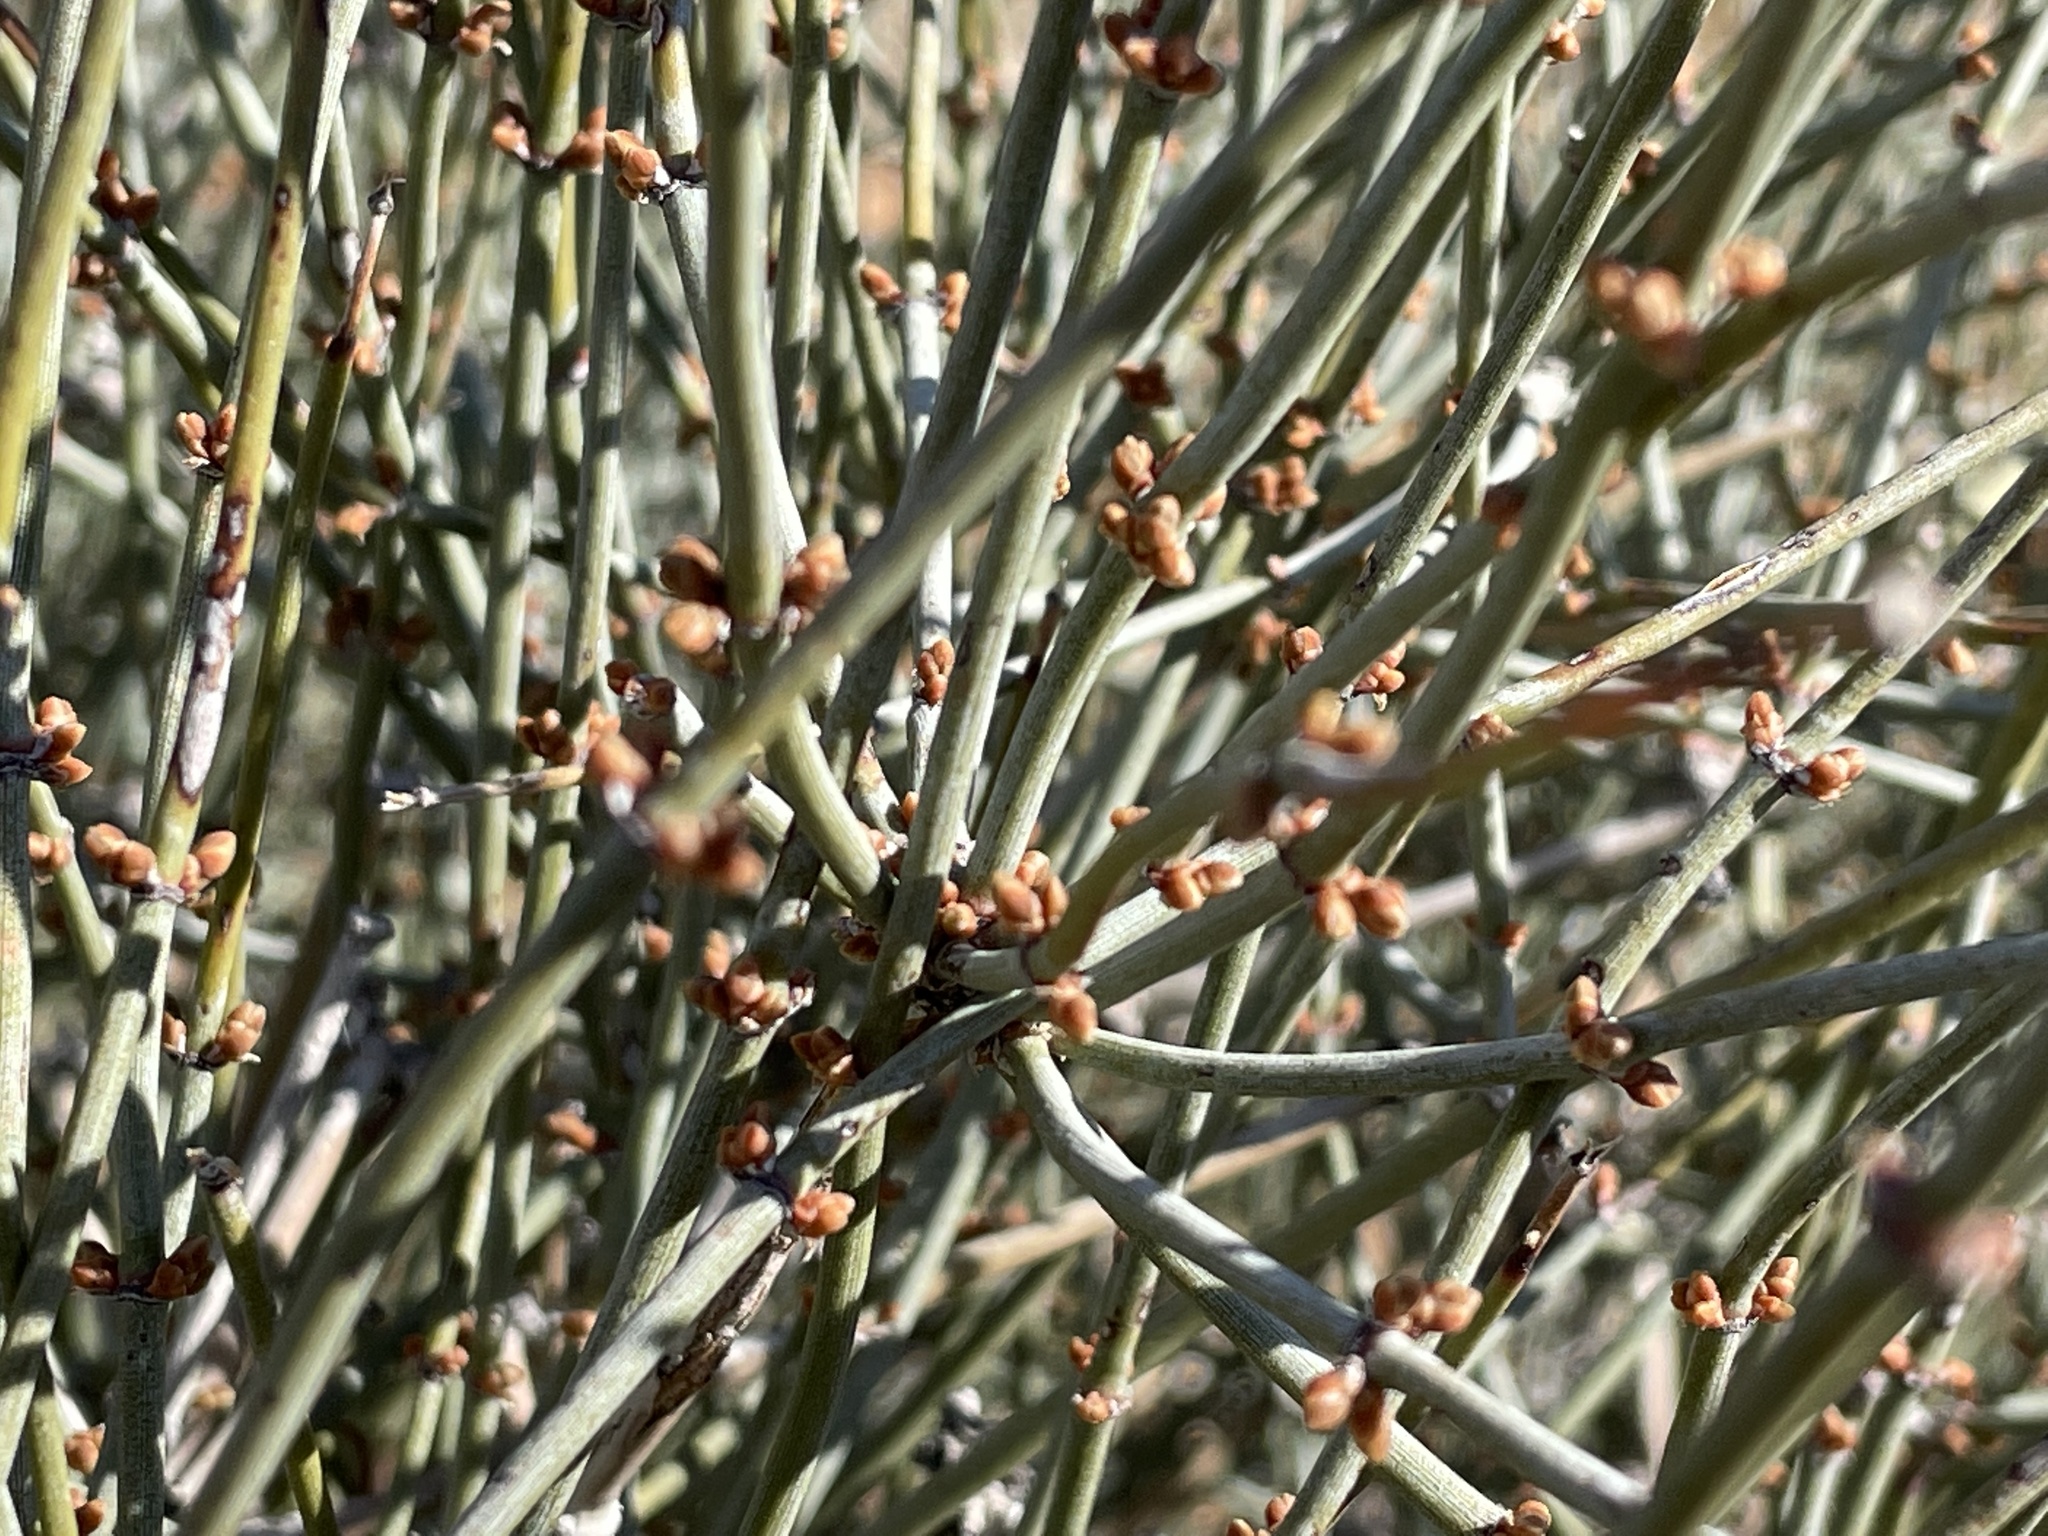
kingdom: Plantae
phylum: Tracheophyta
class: Gnetopsida
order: Ephedrales
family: Ephedraceae
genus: Ephedra
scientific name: Ephedra aspera
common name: Boundary ephedra
